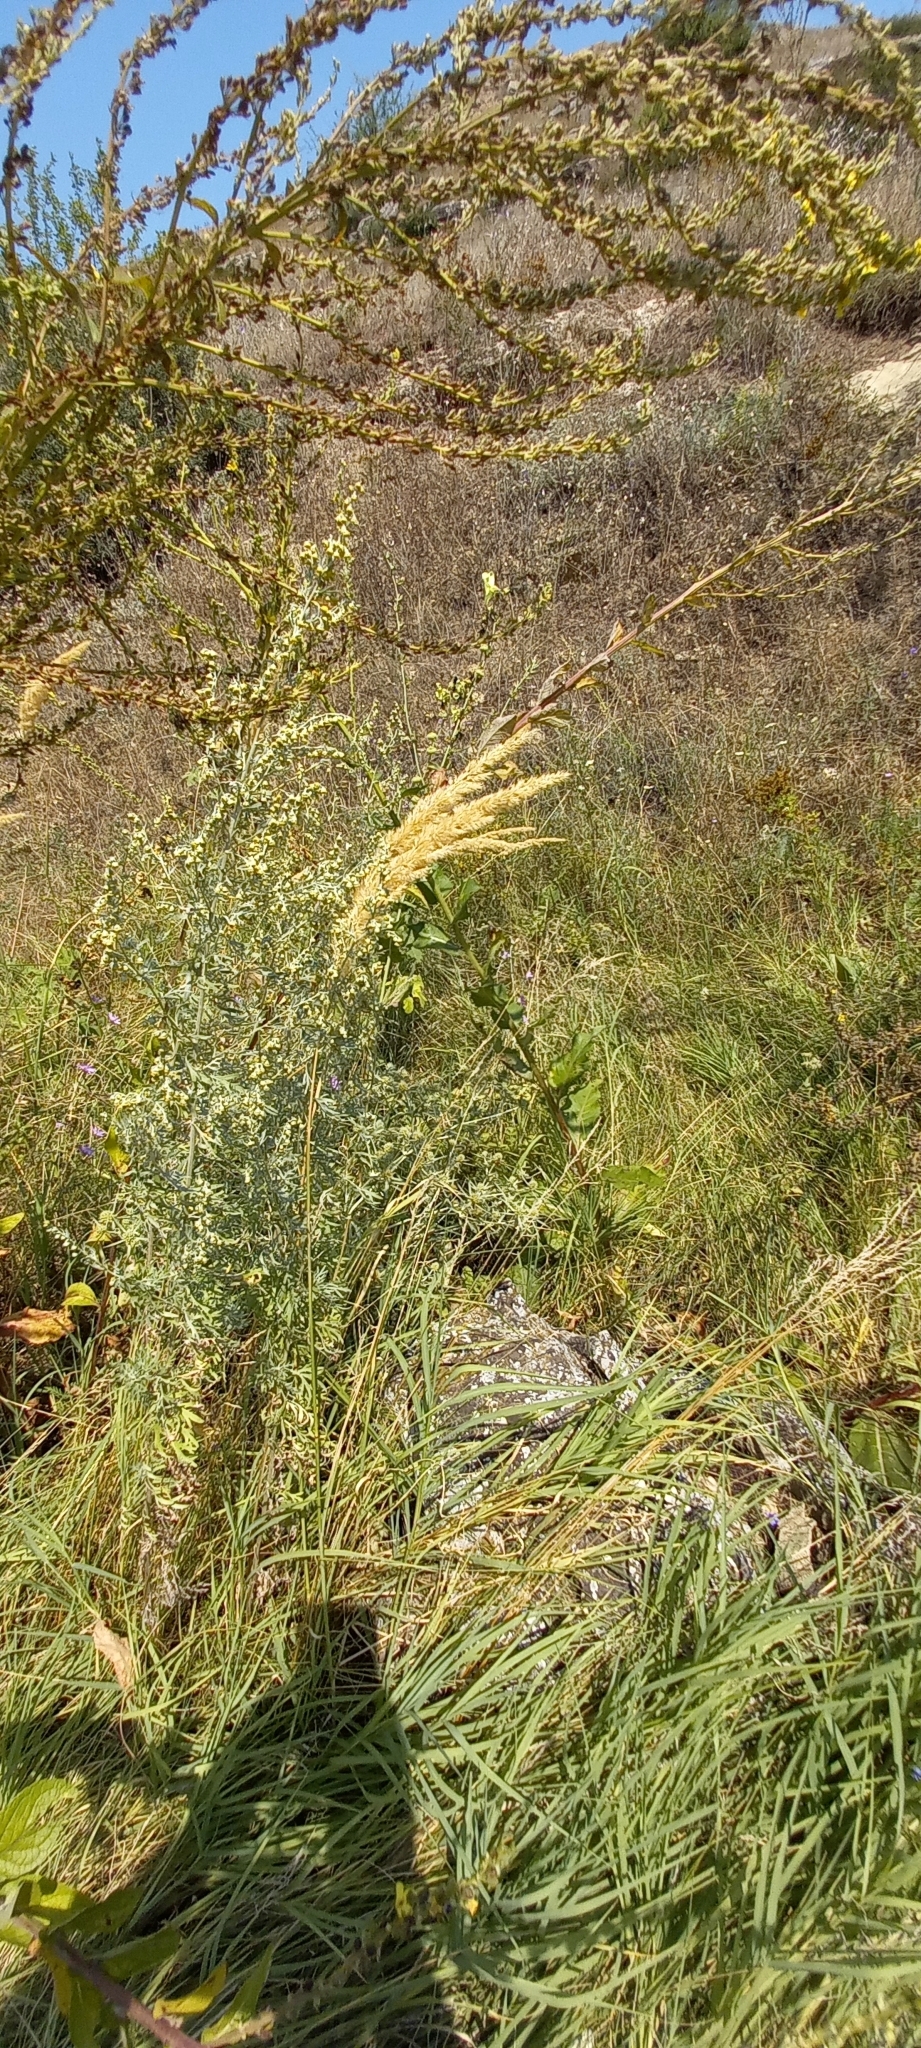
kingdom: Plantae
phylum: Tracheophyta
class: Liliopsida
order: Poales
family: Poaceae
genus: Calamagrostis
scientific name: Calamagrostis epigejos
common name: Wood small-reed
